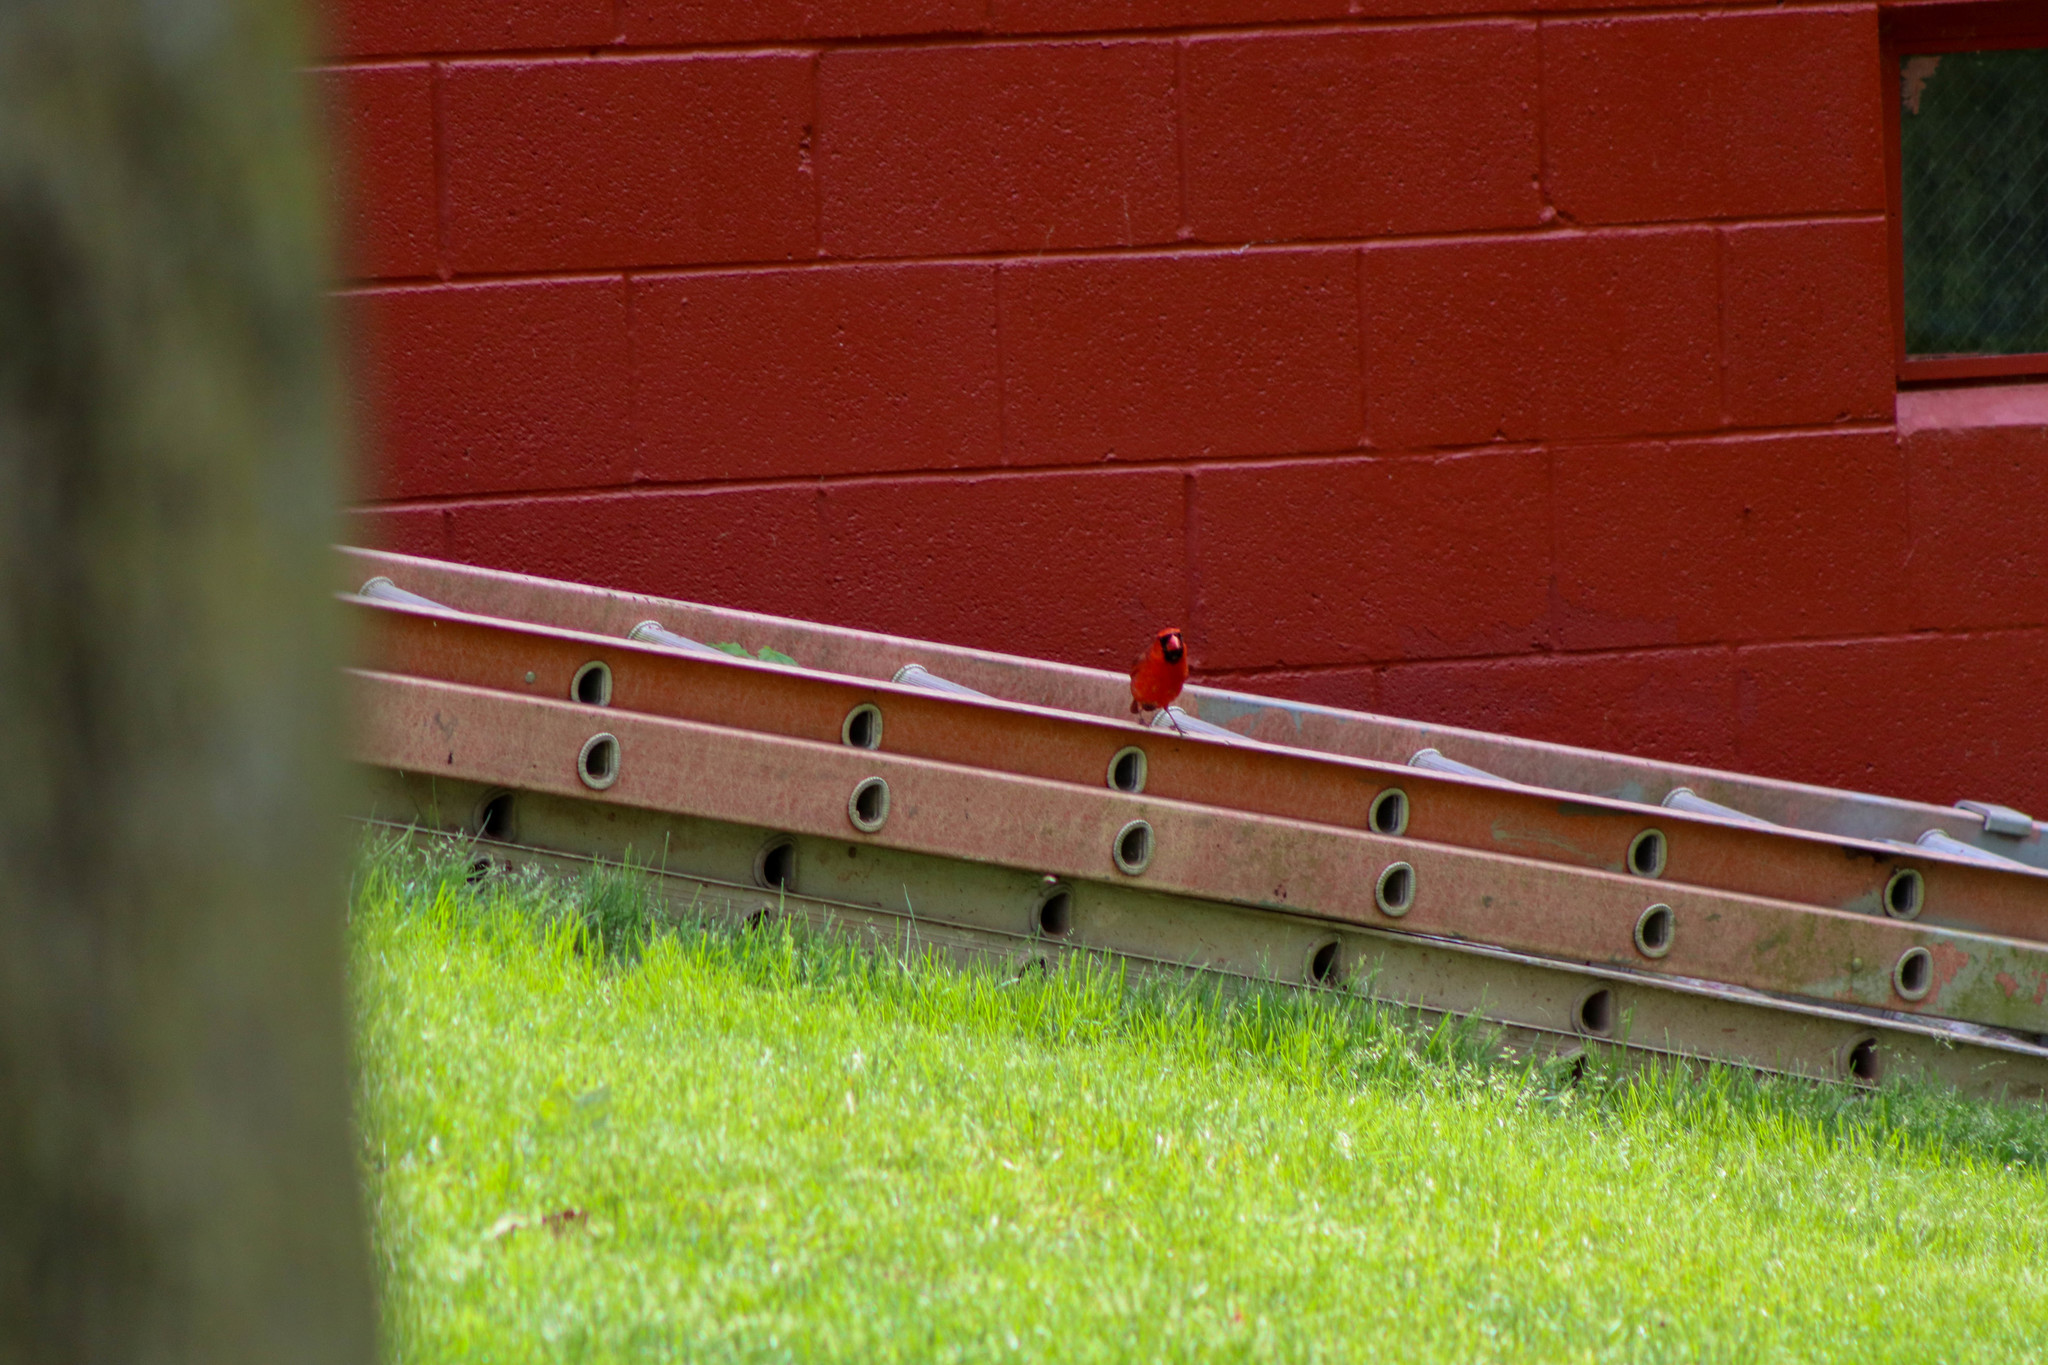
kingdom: Animalia
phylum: Chordata
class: Aves
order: Passeriformes
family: Cardinalidae
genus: Cardinalis
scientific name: Cardinalis cardinalis
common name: Northern cardinal
